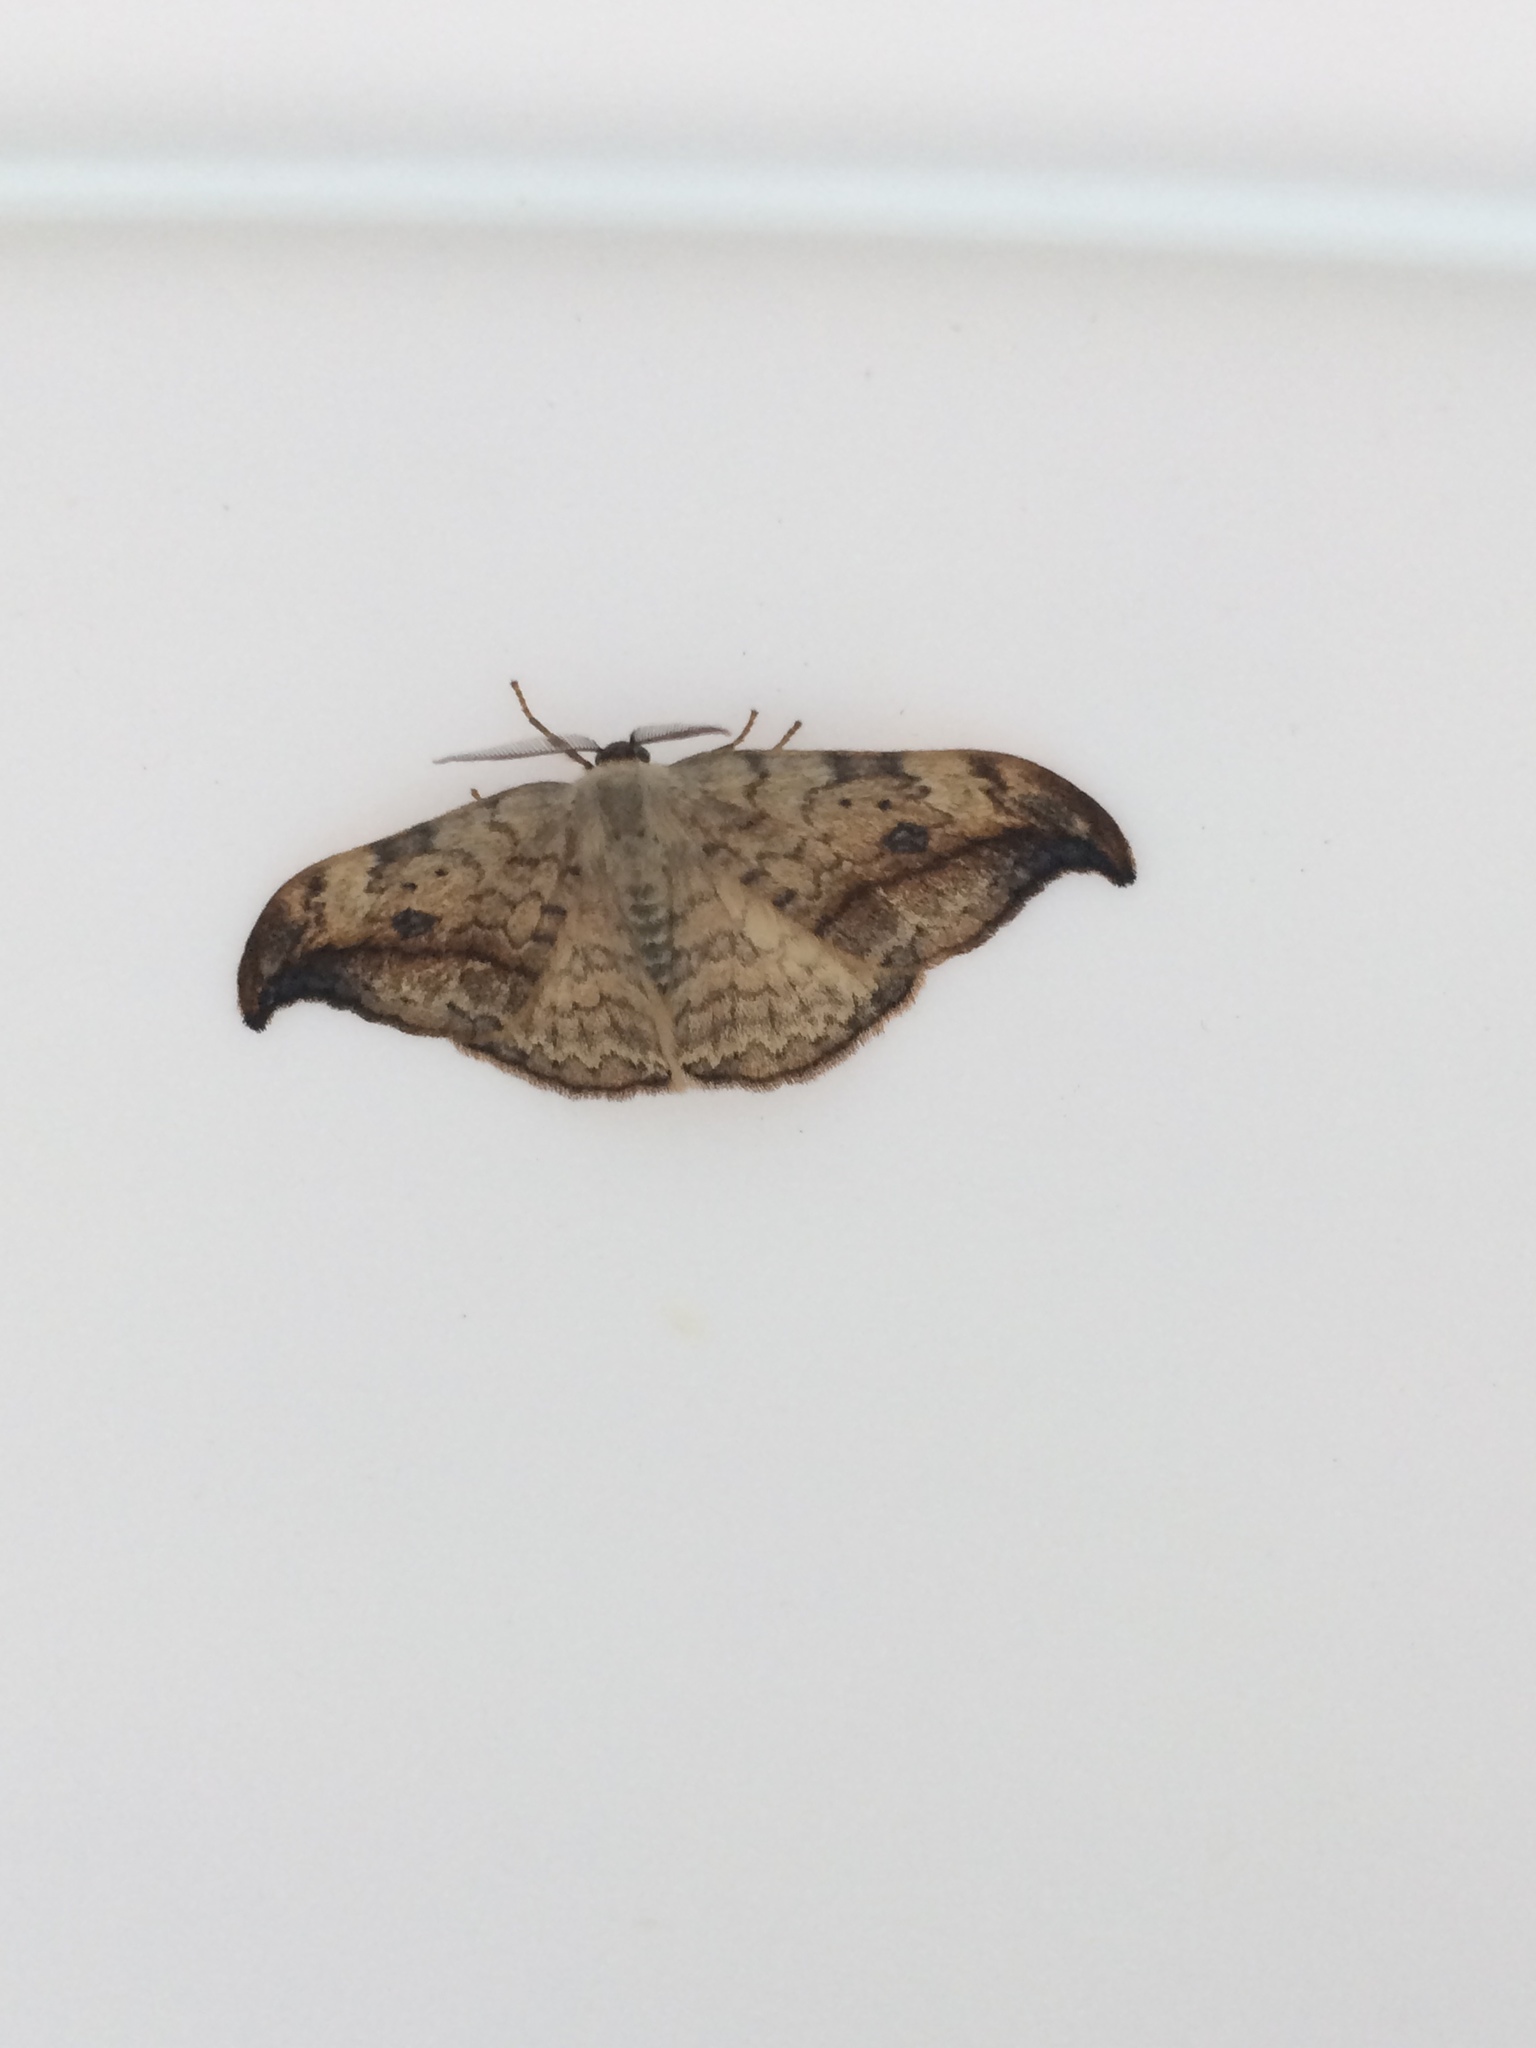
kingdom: Animalia
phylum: Arthropoda
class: Insecta
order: Lepidoptera
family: Drepanidae
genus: Drepana
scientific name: Drepana falcataria
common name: Pebble hook-tip
